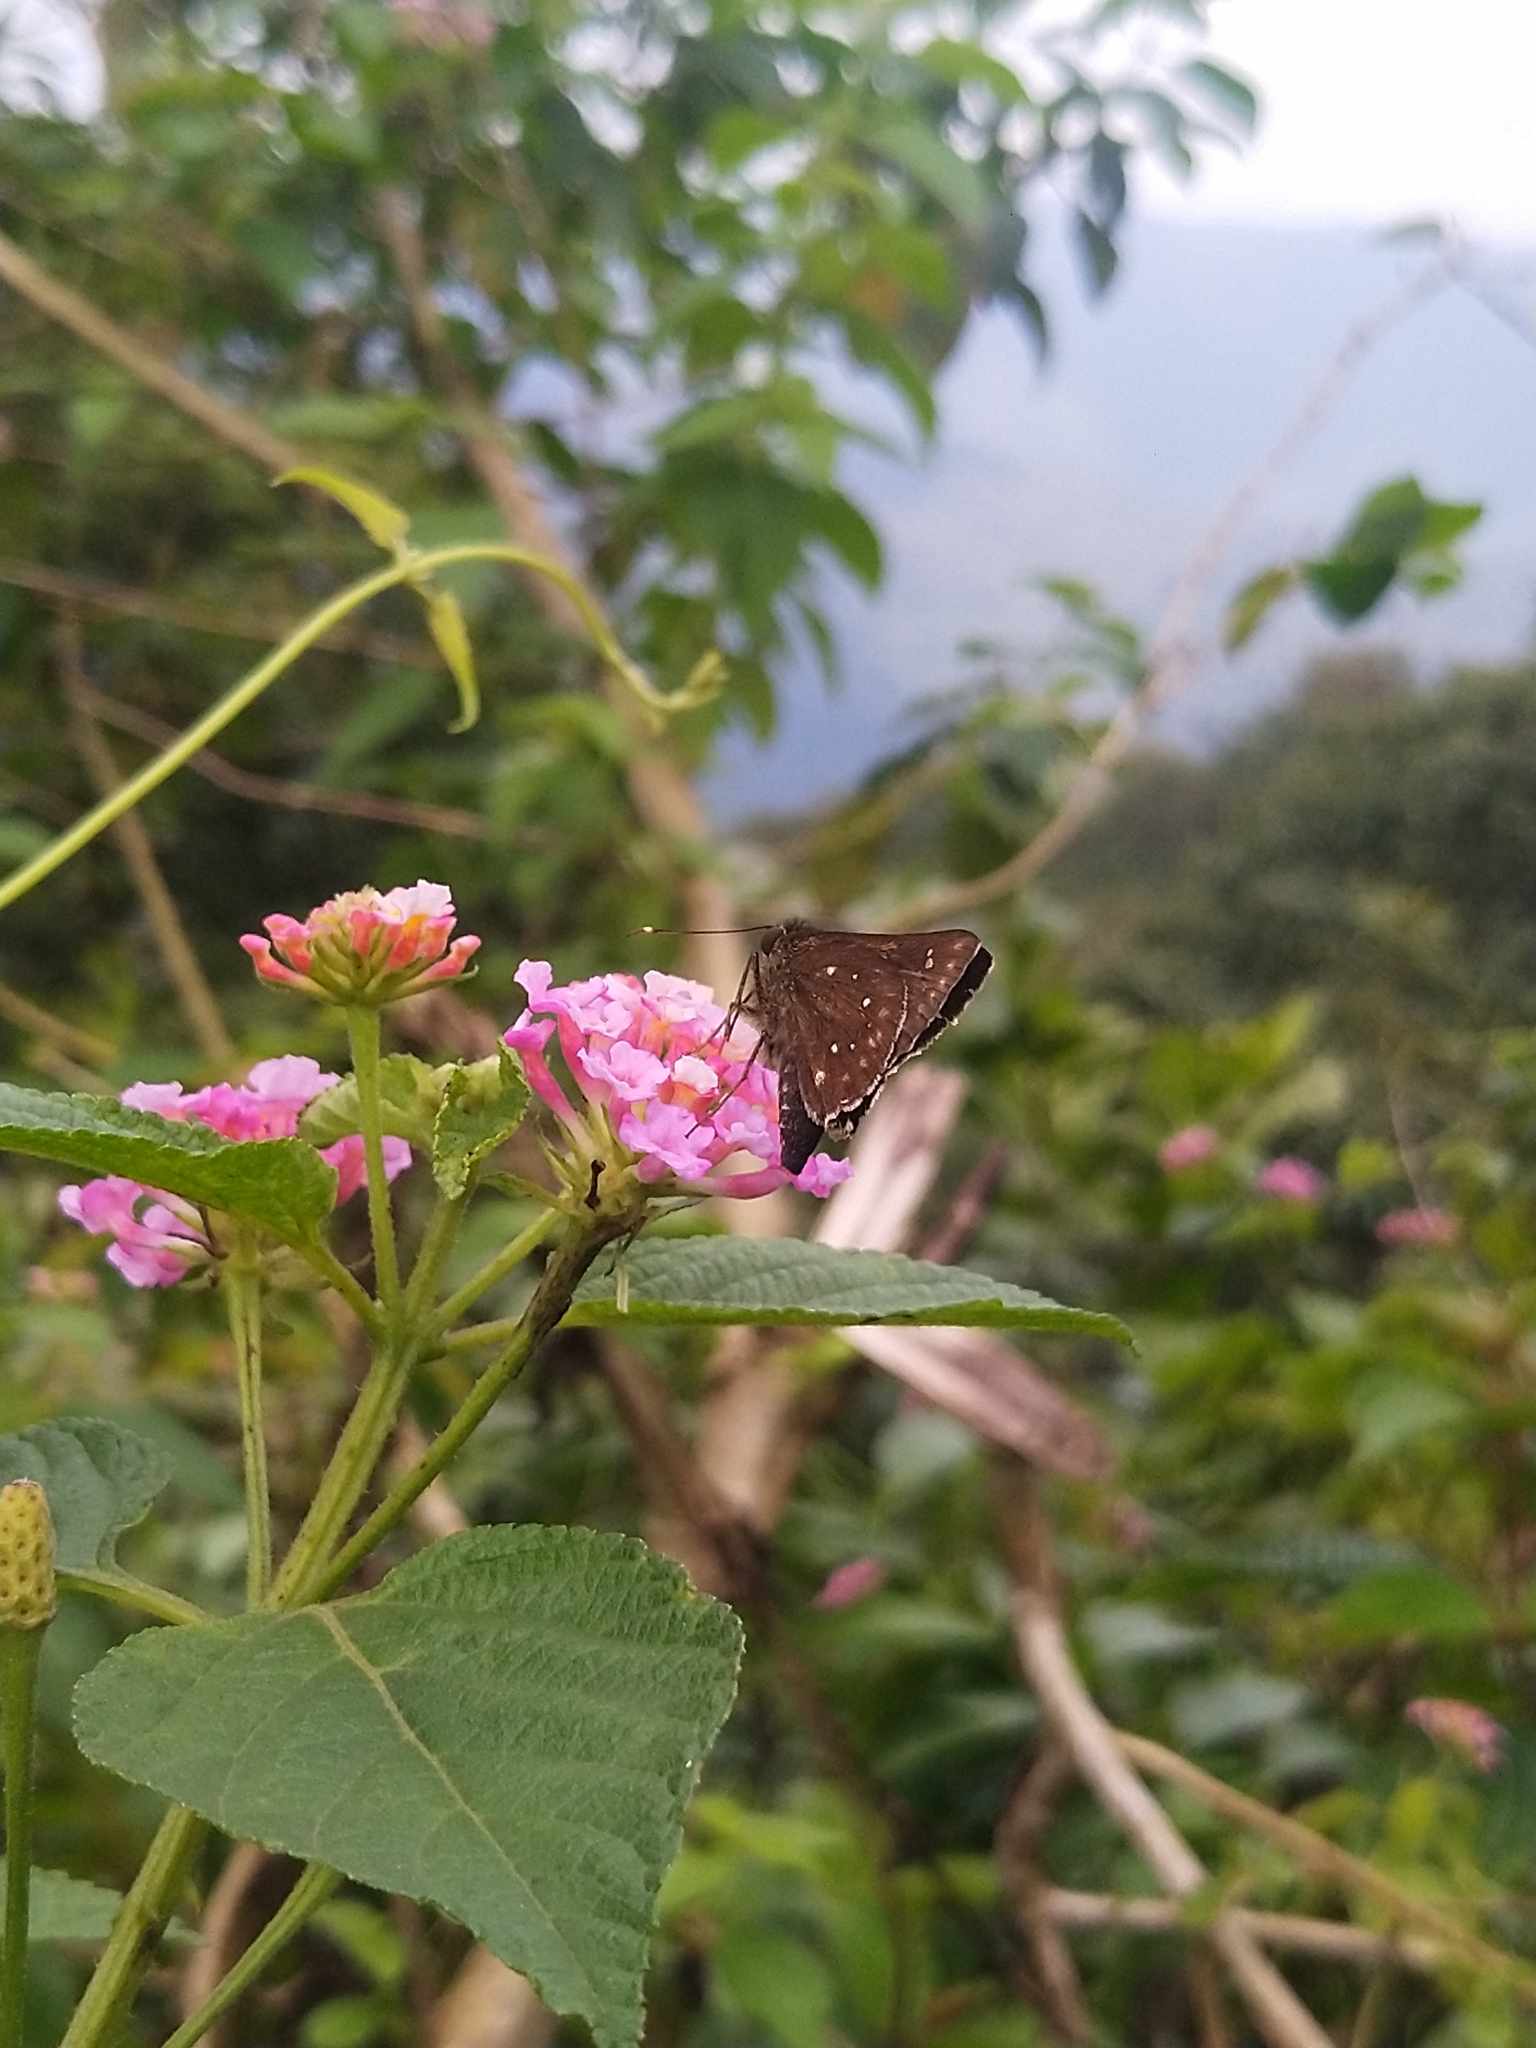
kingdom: Animalia
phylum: Arthropoda
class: Insecta
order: Lepidoptera
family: Hesperiidae
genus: Thoressa
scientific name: Thoressa astigmata
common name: Southern spotted ace
